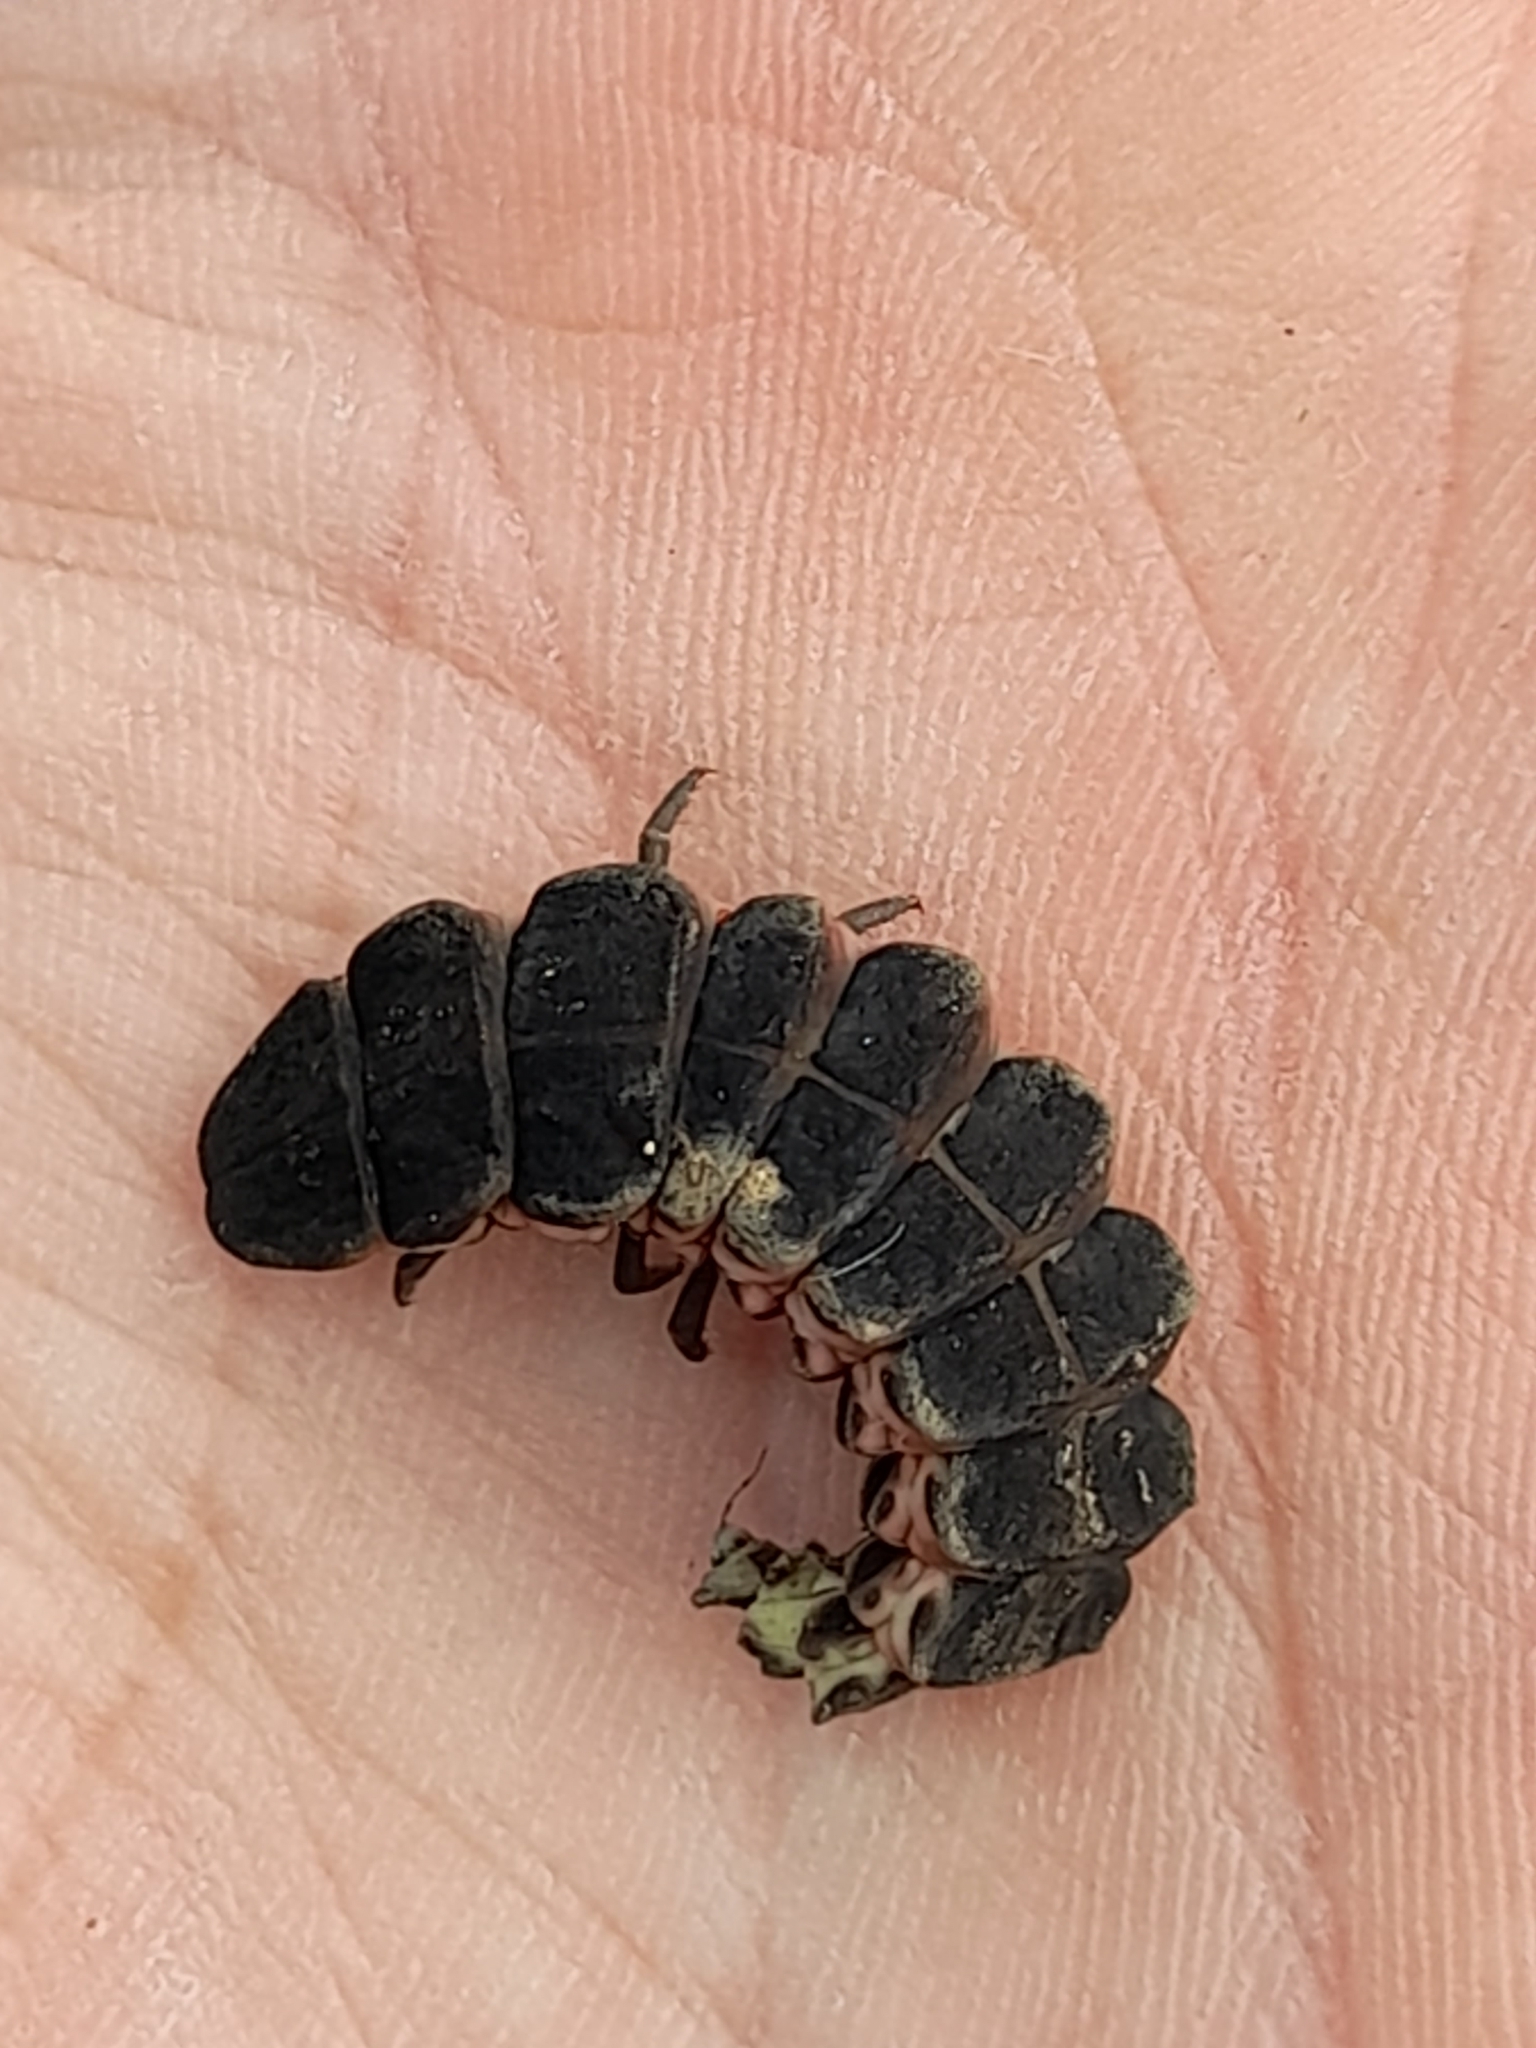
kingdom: Animalia
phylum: Arthropoda
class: Insecta
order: Coleoptera
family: Lampyridae
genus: Nyctophila
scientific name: Nyctophila reichii
